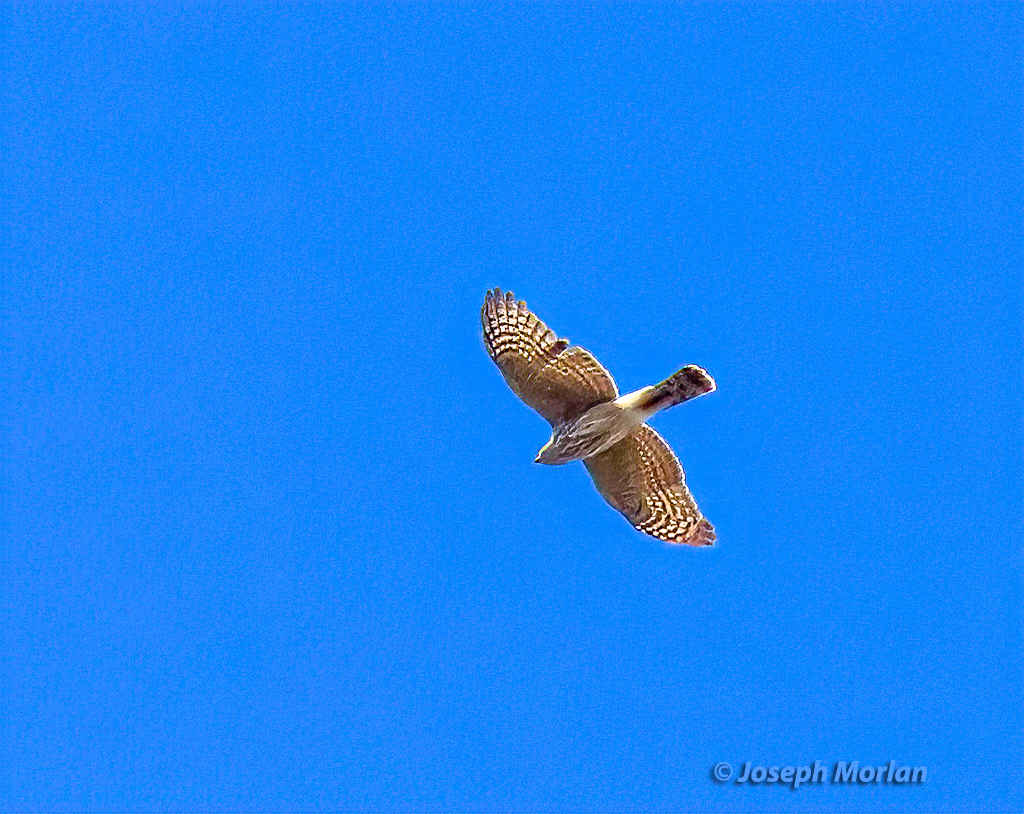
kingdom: Animalia
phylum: Chordata
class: Aves
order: Accipitriformes
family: Accipitridae
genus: Accipiter
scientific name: Accipiter striatus
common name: Sharp-shinned hawk
